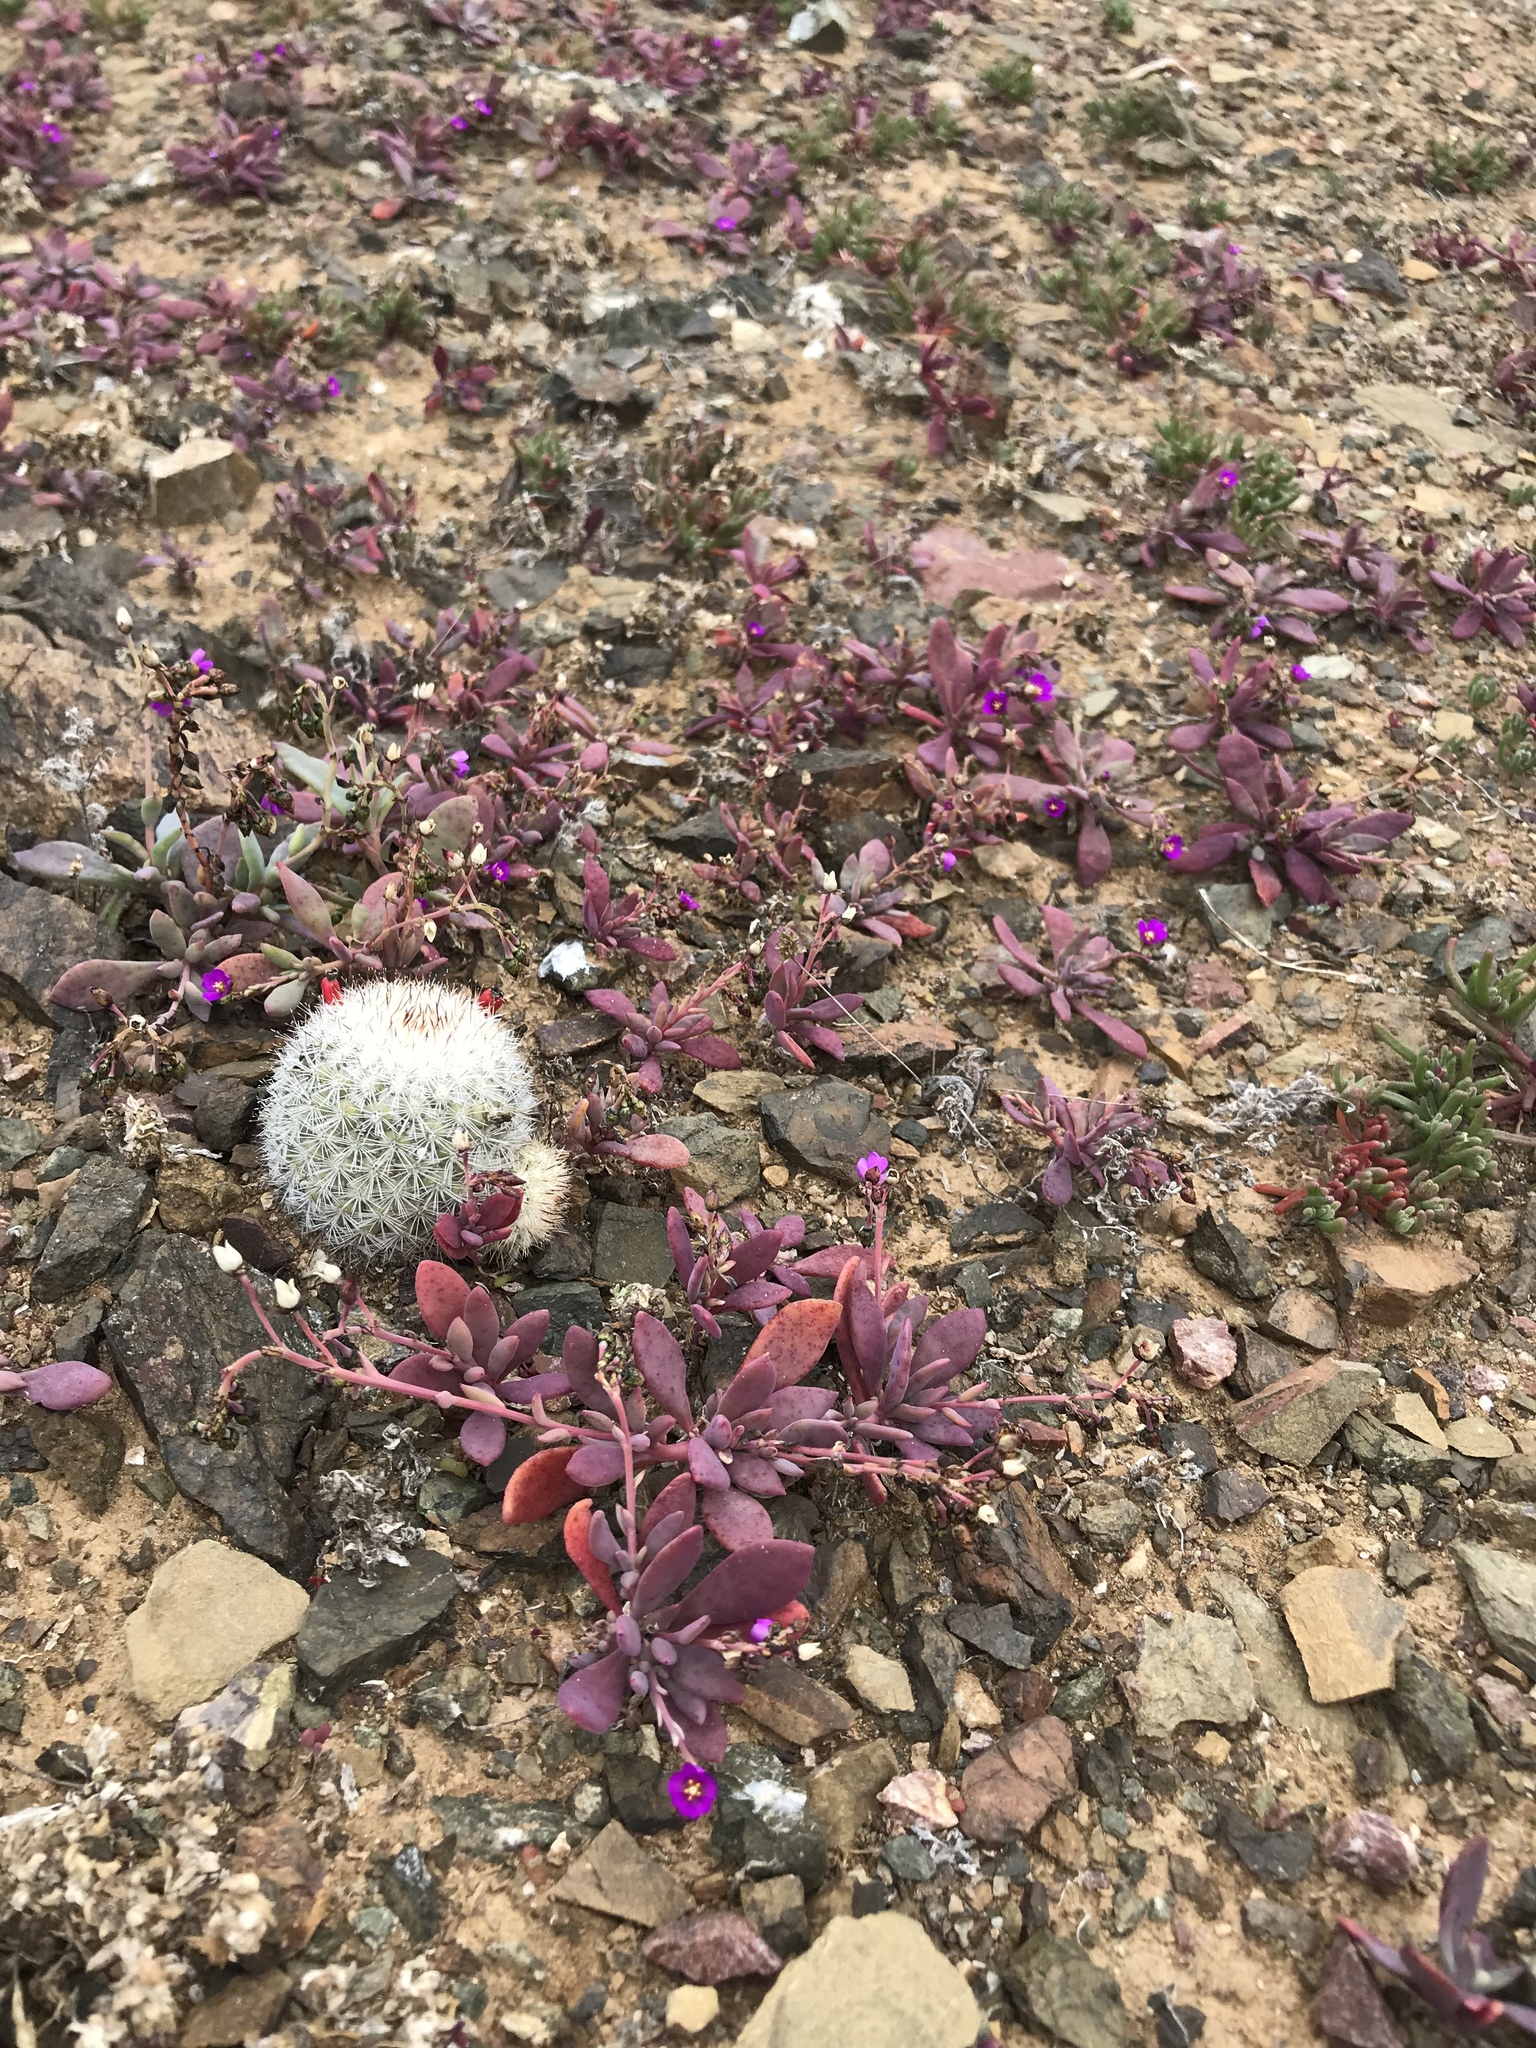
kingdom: Plantae
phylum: Tracheophyta
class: Magnoliopsida
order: Caryophyllales
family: Montiaceae
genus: Cistanthe
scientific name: Cistanthe maritima
